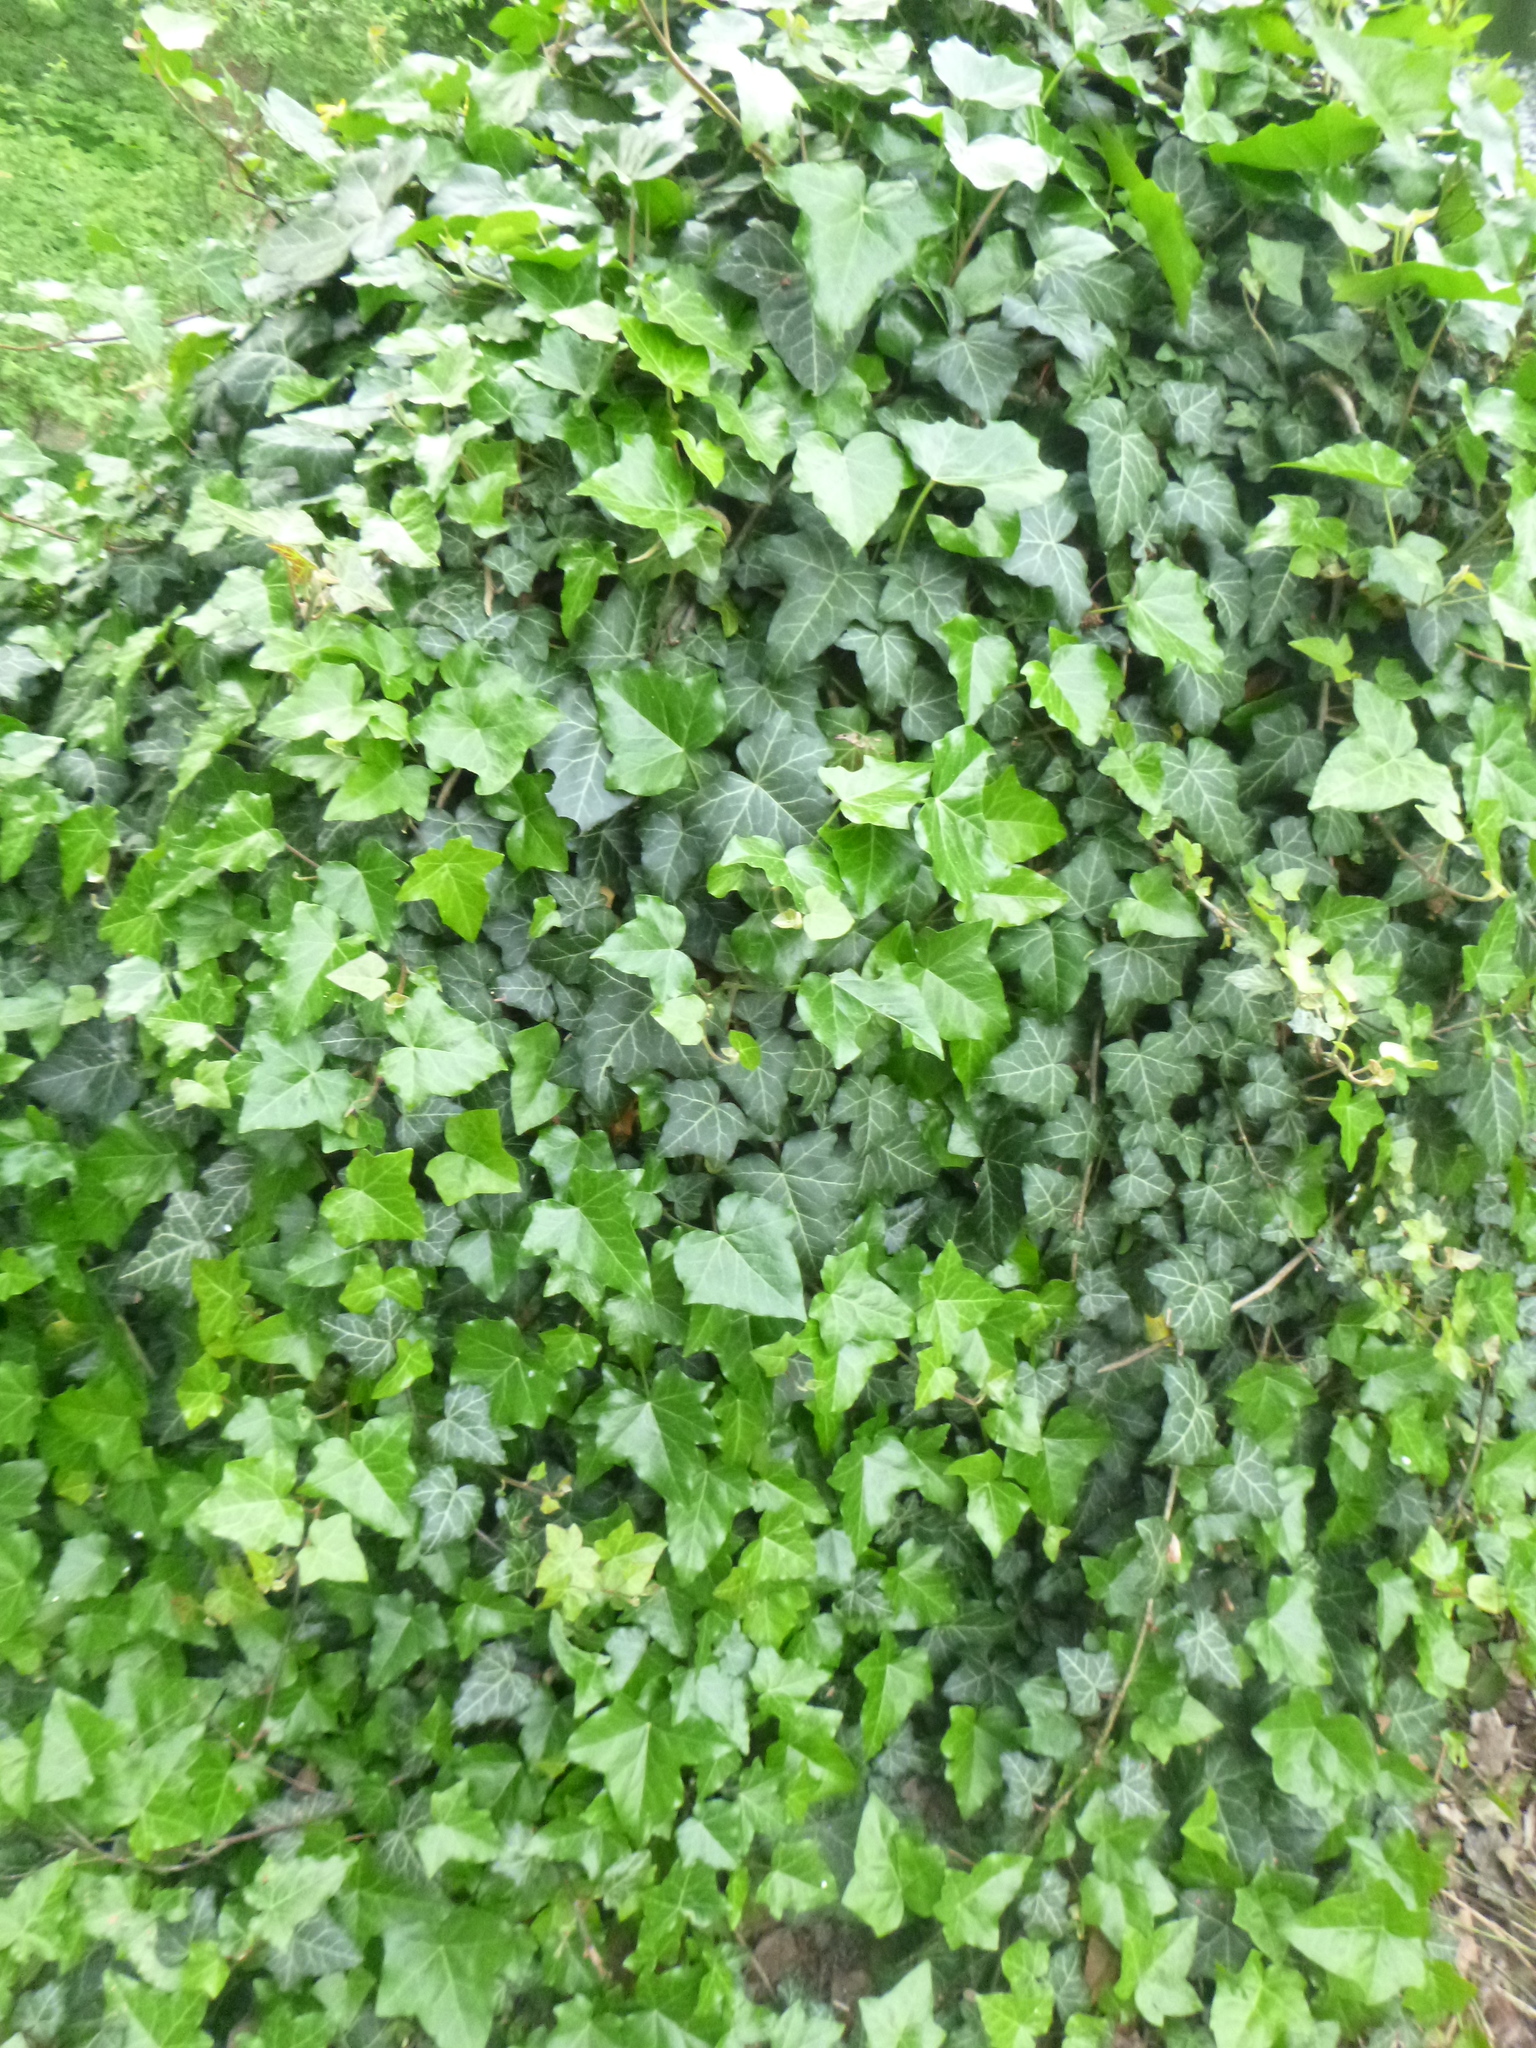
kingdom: Plantae
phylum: Tracheophyta
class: Magnoliopsida
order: Apiales
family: Araliaceae
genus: Hedera
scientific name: Hedera helix
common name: Ivy
